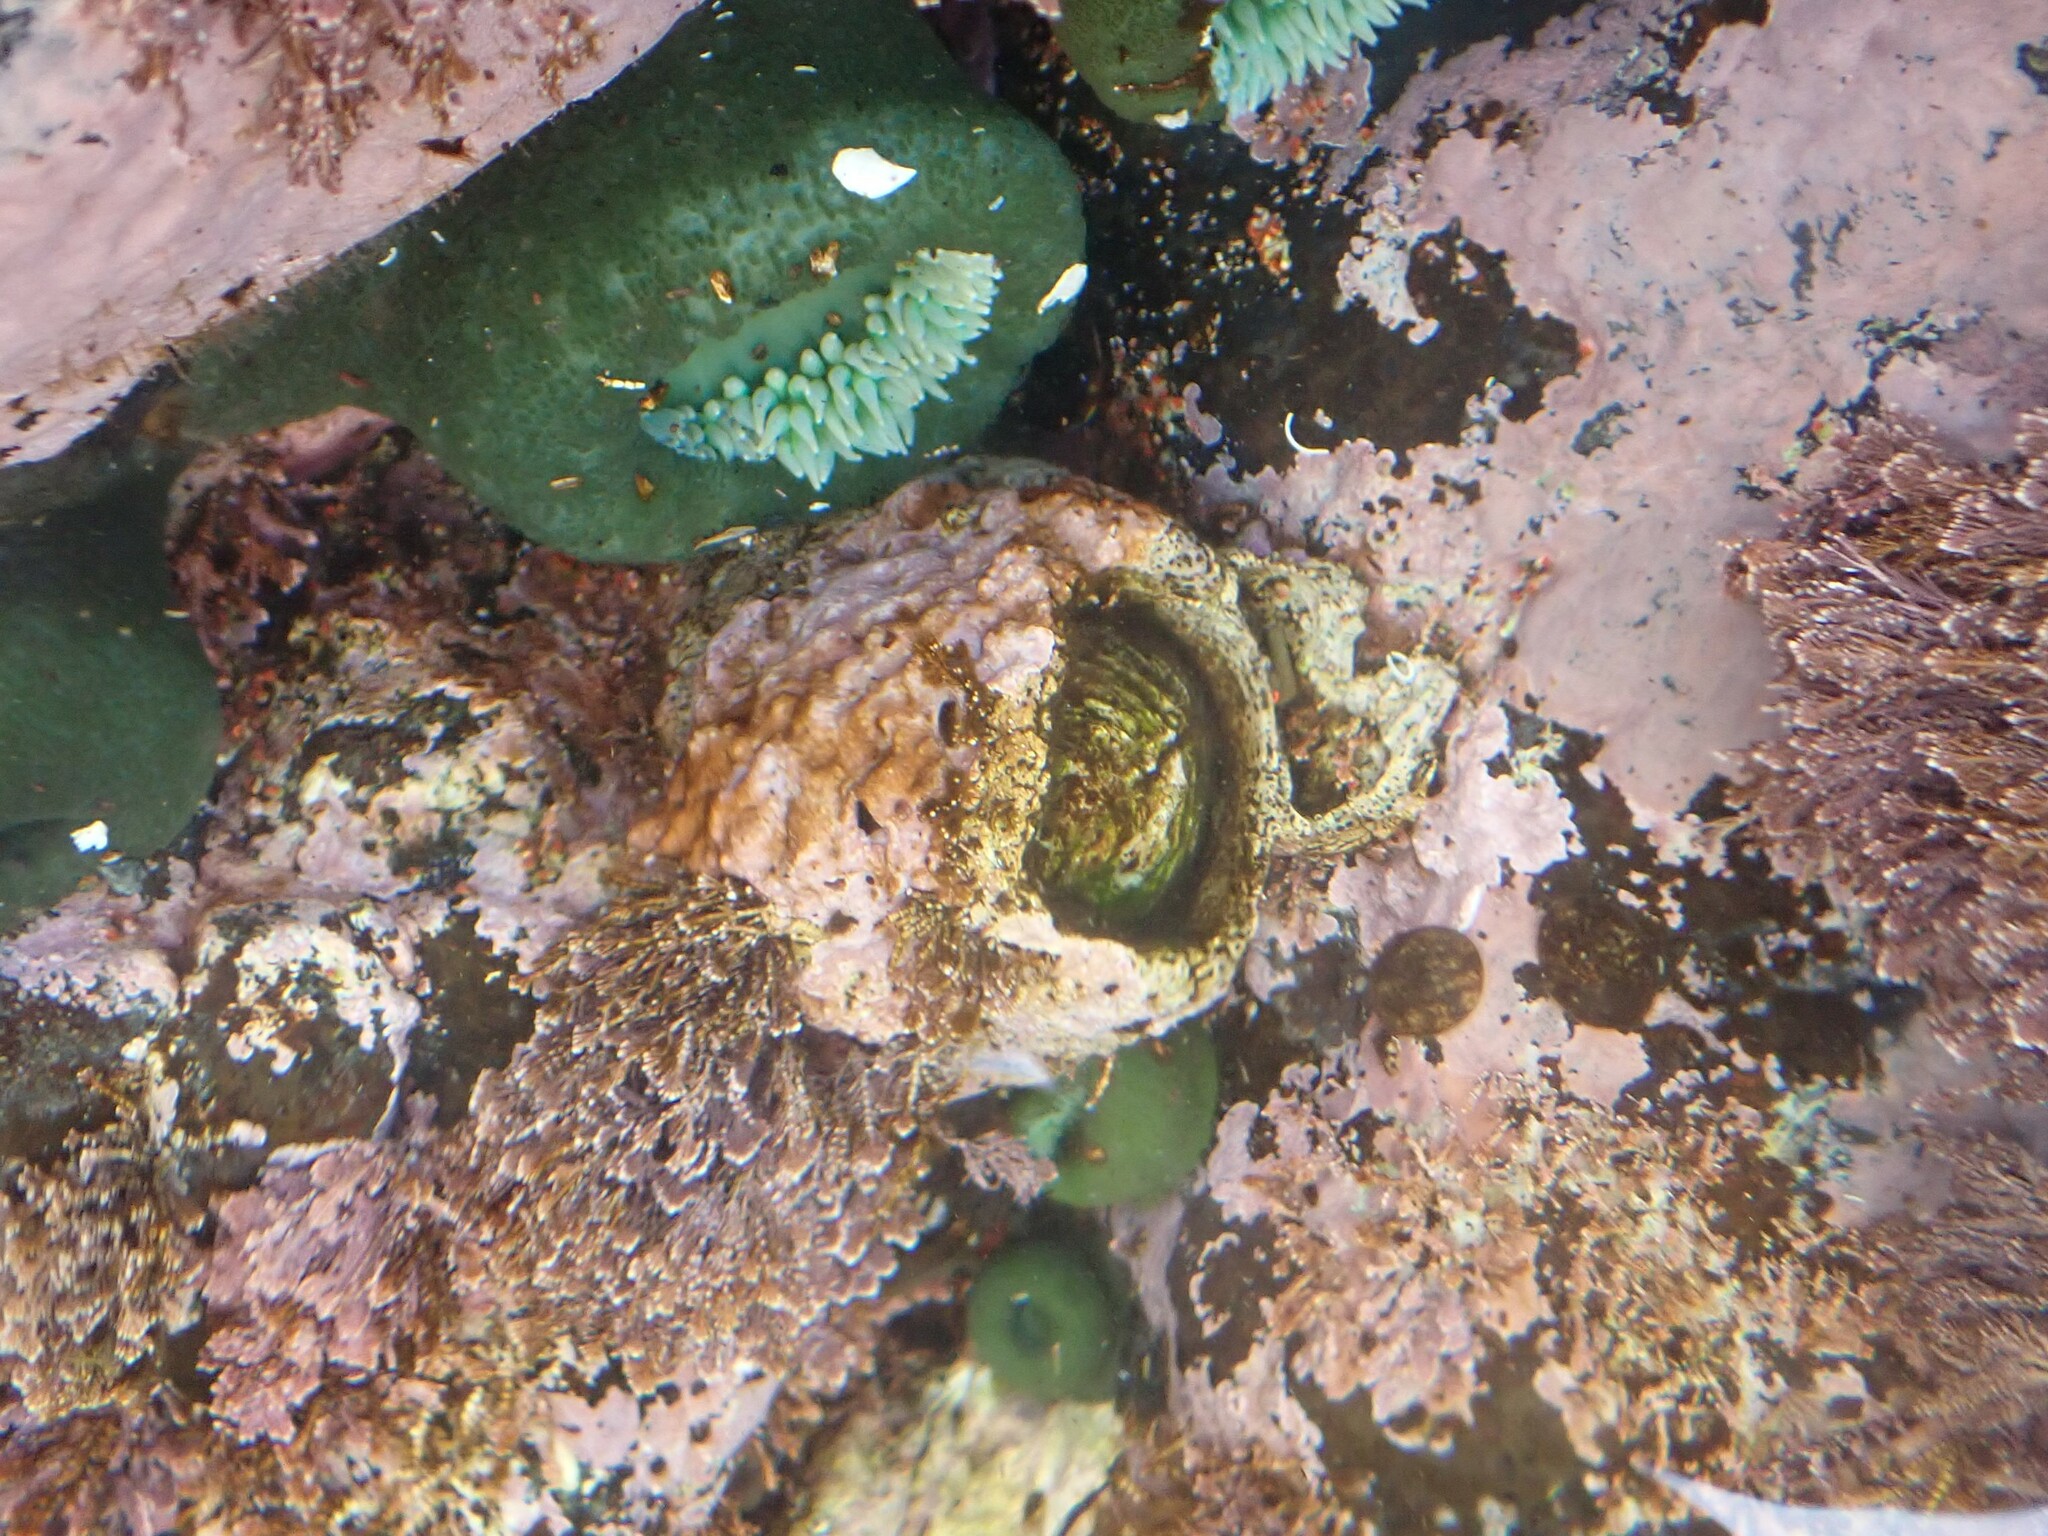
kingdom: Animalia
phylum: Arthropoda
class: Maxillopoda
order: Sessilia
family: Balanidae
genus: Balanus
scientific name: Balanus nubilus
